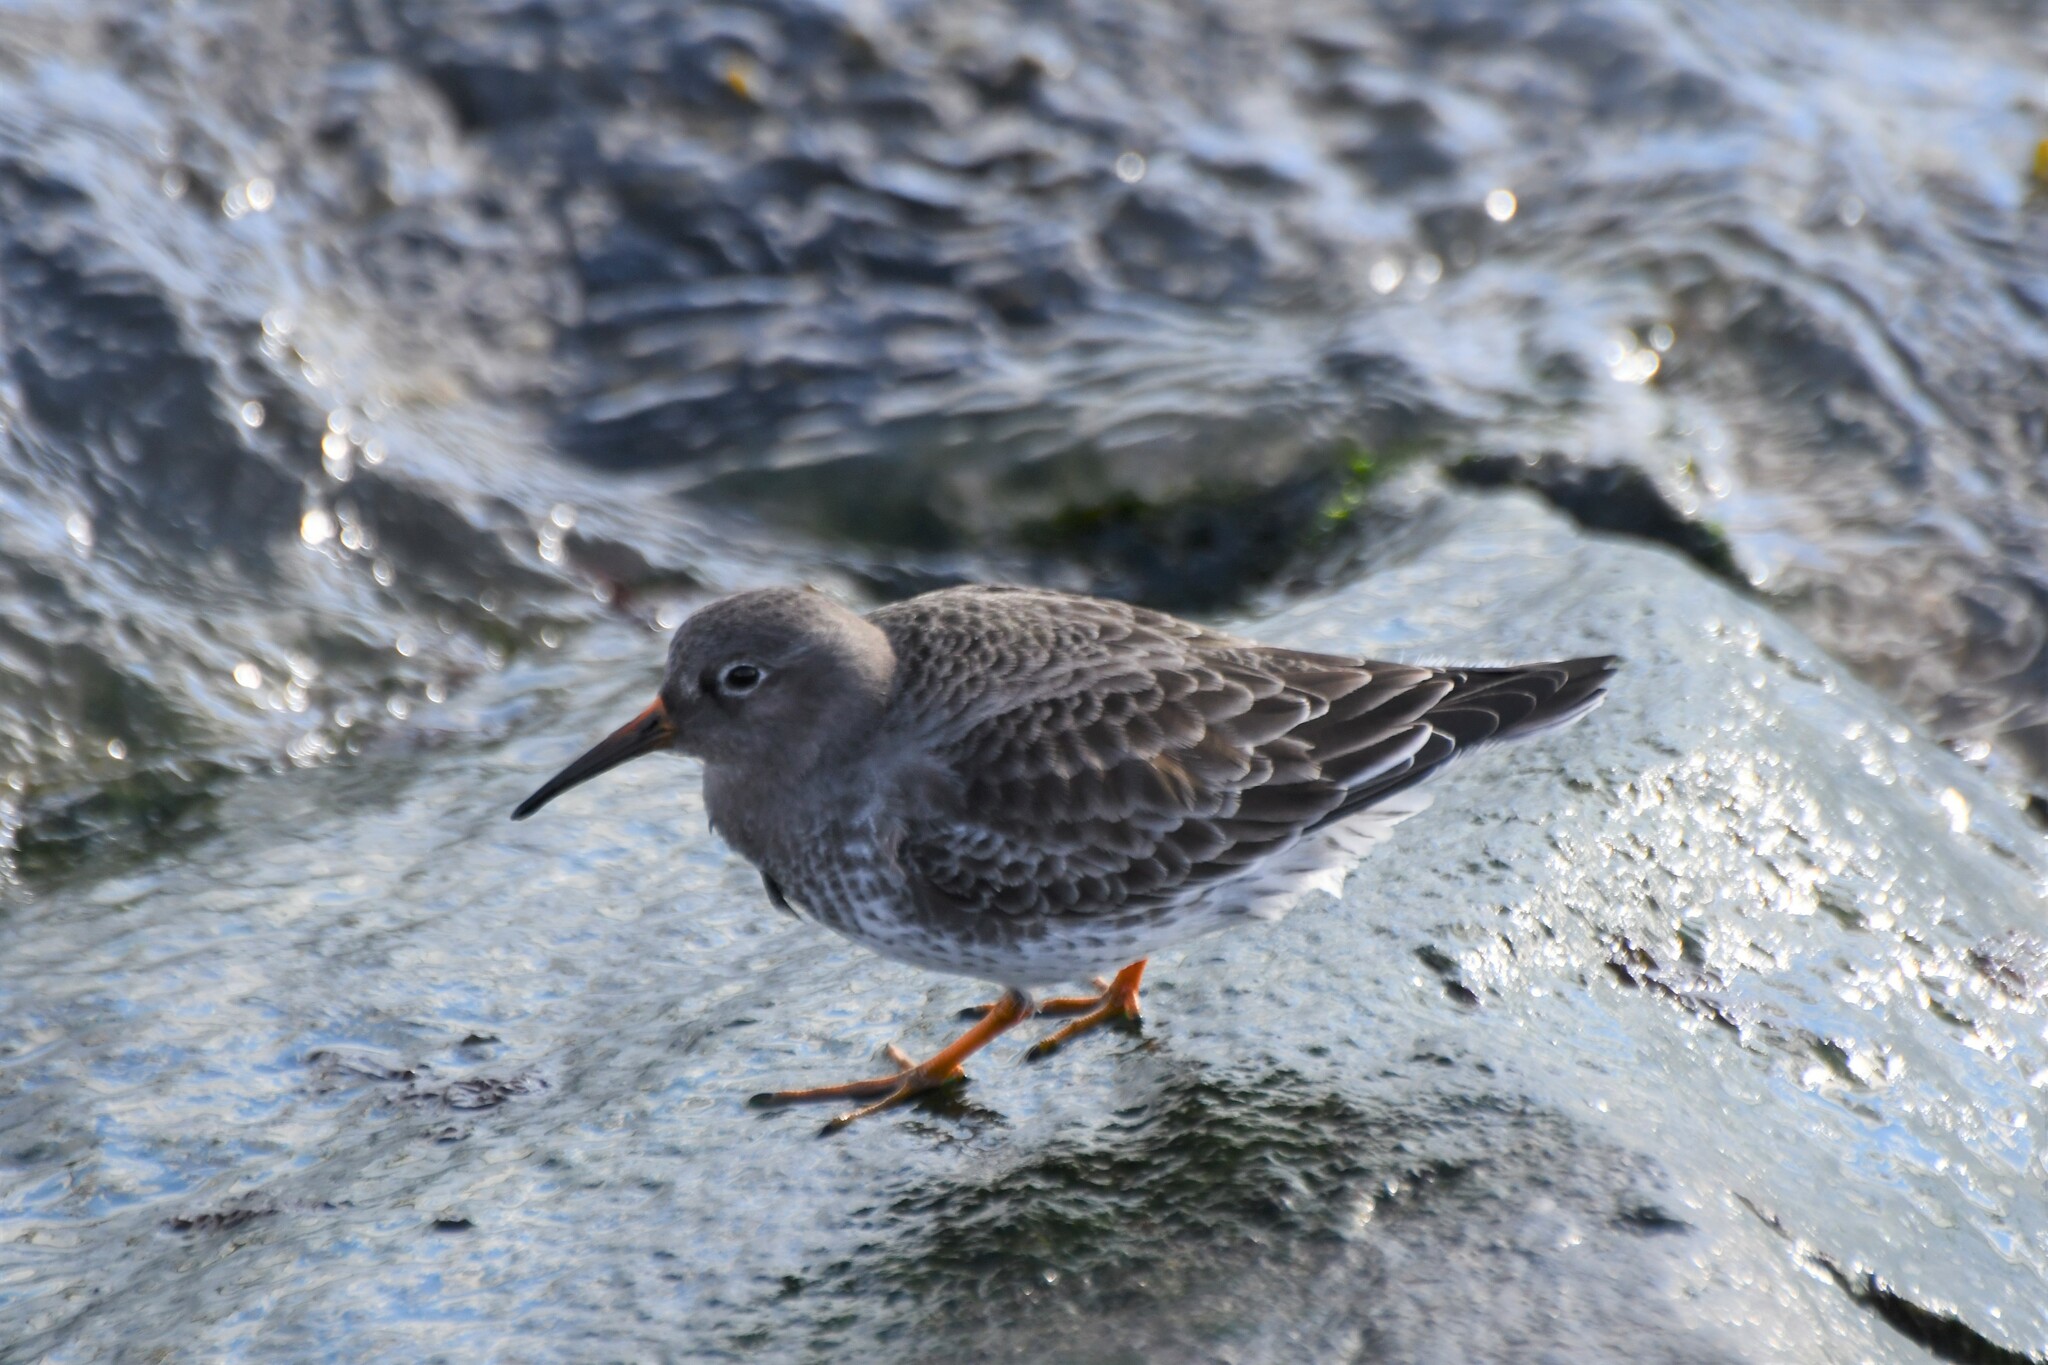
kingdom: Animalia
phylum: Chordata
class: Aves
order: Charadriiformes
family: Scolopacidae
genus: Calidris
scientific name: Calidris maritima
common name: Purple sandpiper
